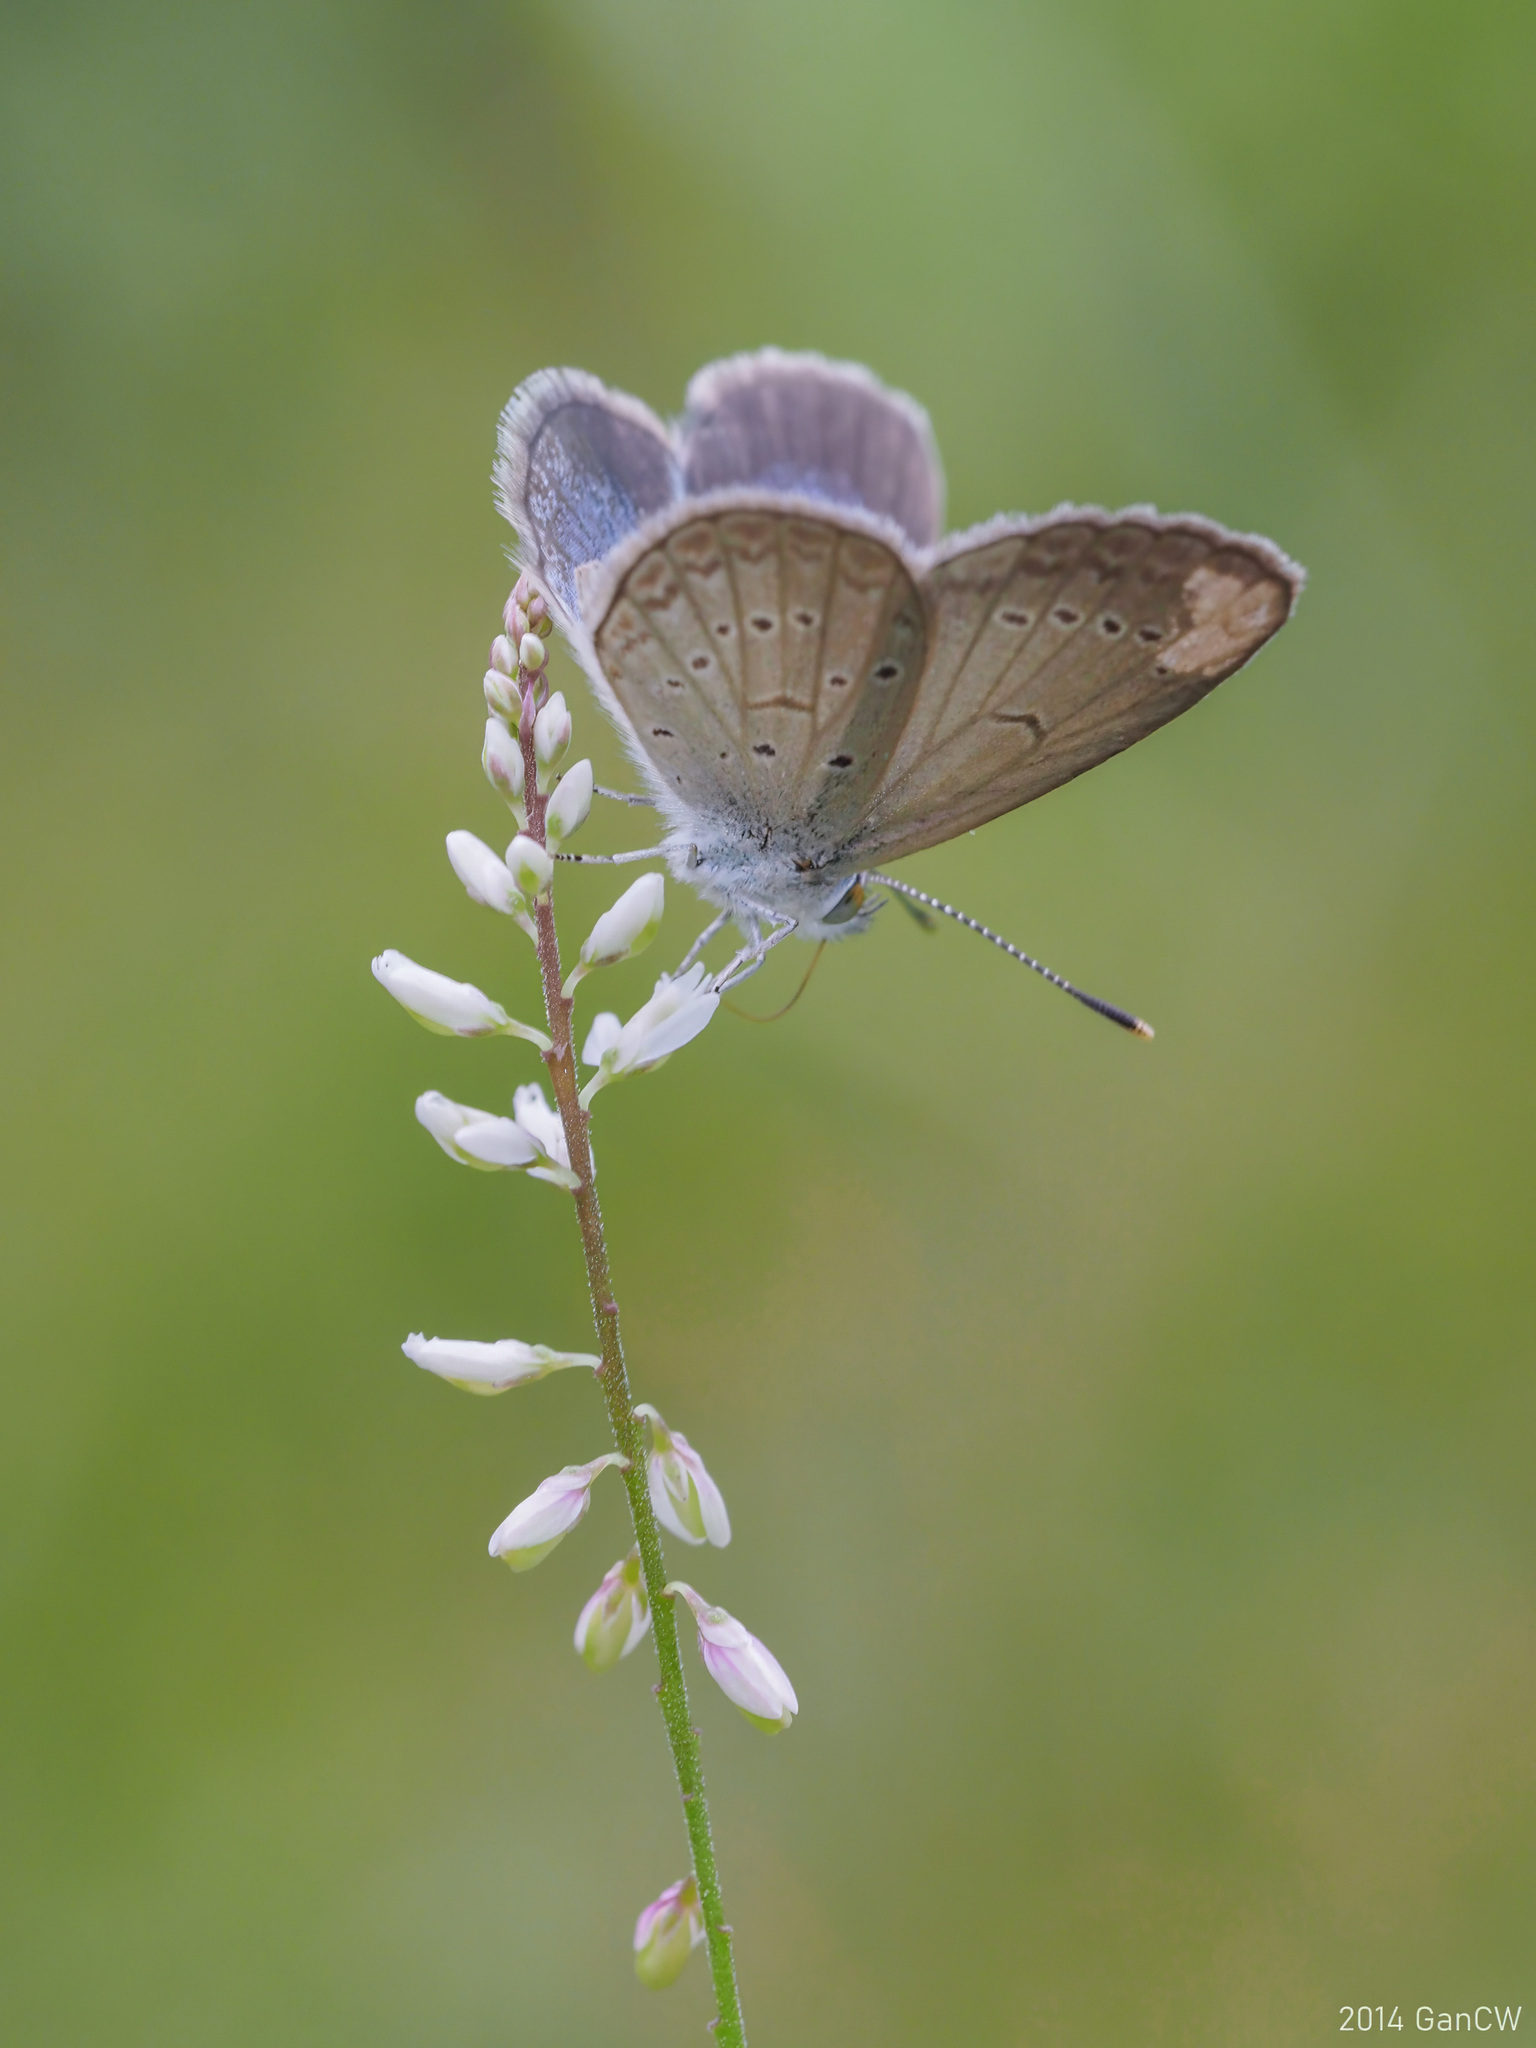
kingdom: Animalia
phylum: Arthropoda
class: Insecta
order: Lepidoptera
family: Lycaenidae
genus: Zizina
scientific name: Zizina otis
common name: Lesser grass blue
